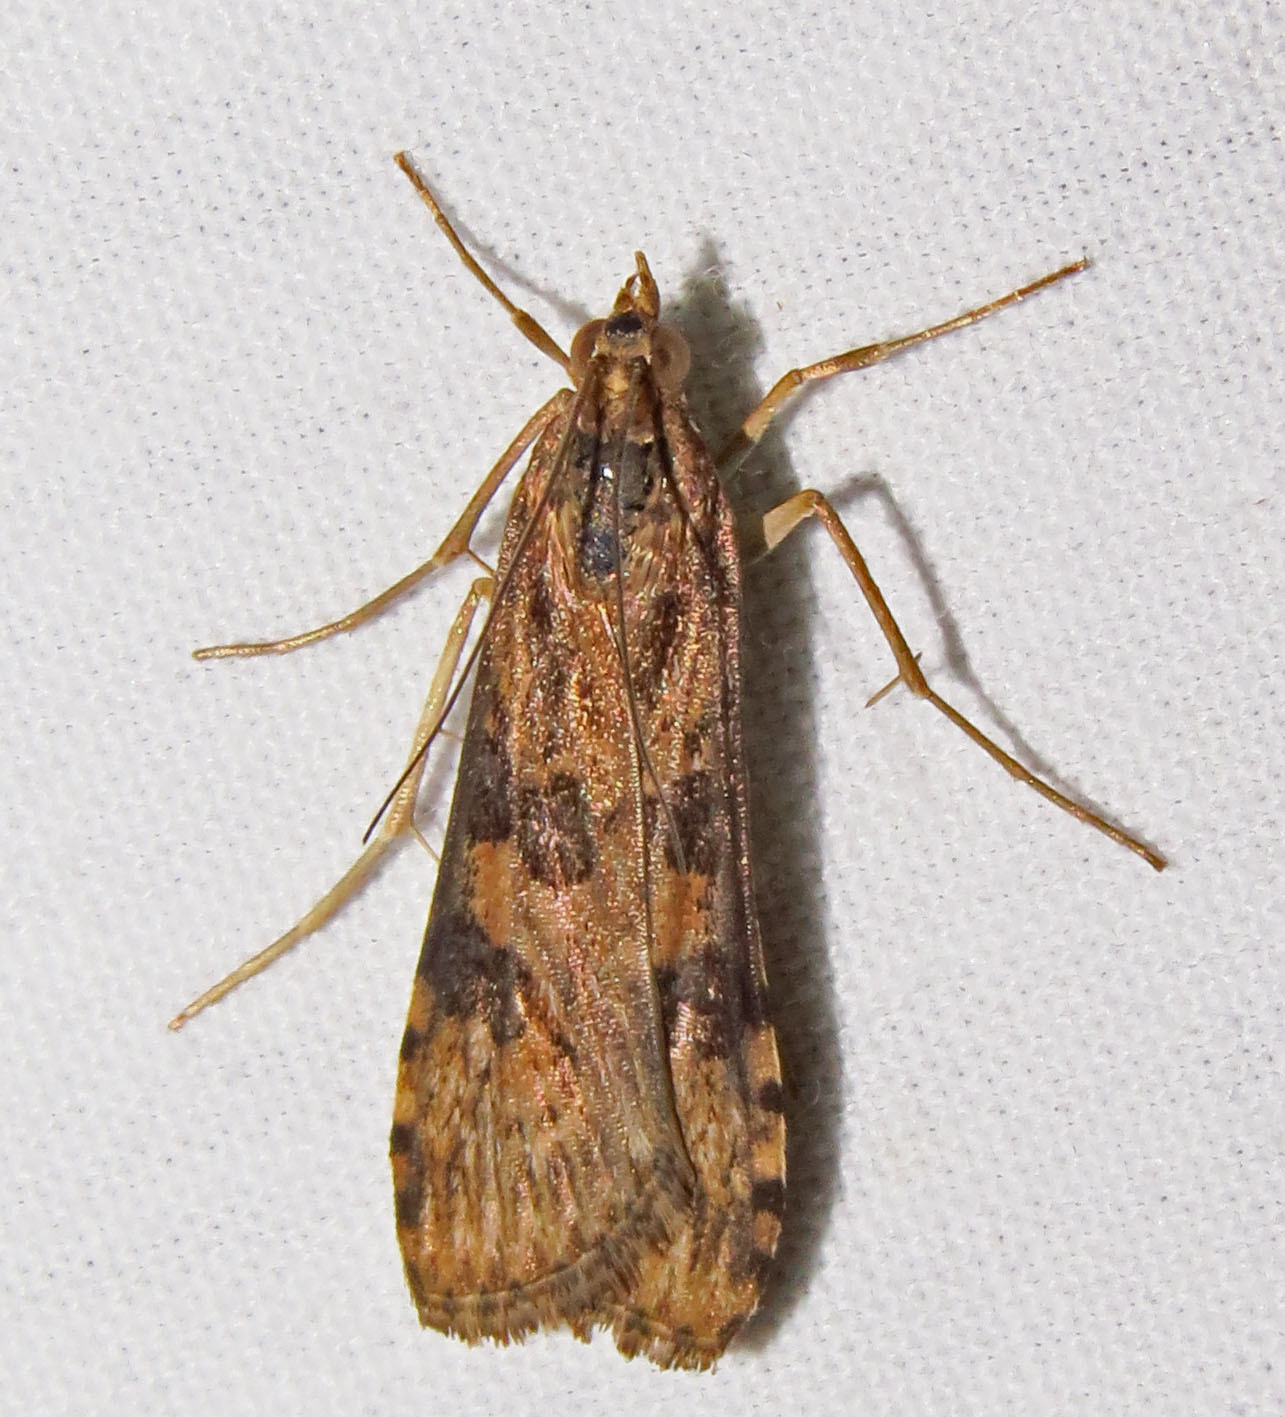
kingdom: Animalia
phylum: Arthropoda
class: Insecta
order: Lepidoptera
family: Crambidae
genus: Nomophila
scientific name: Nomophila nearctica
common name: American rush veneer
